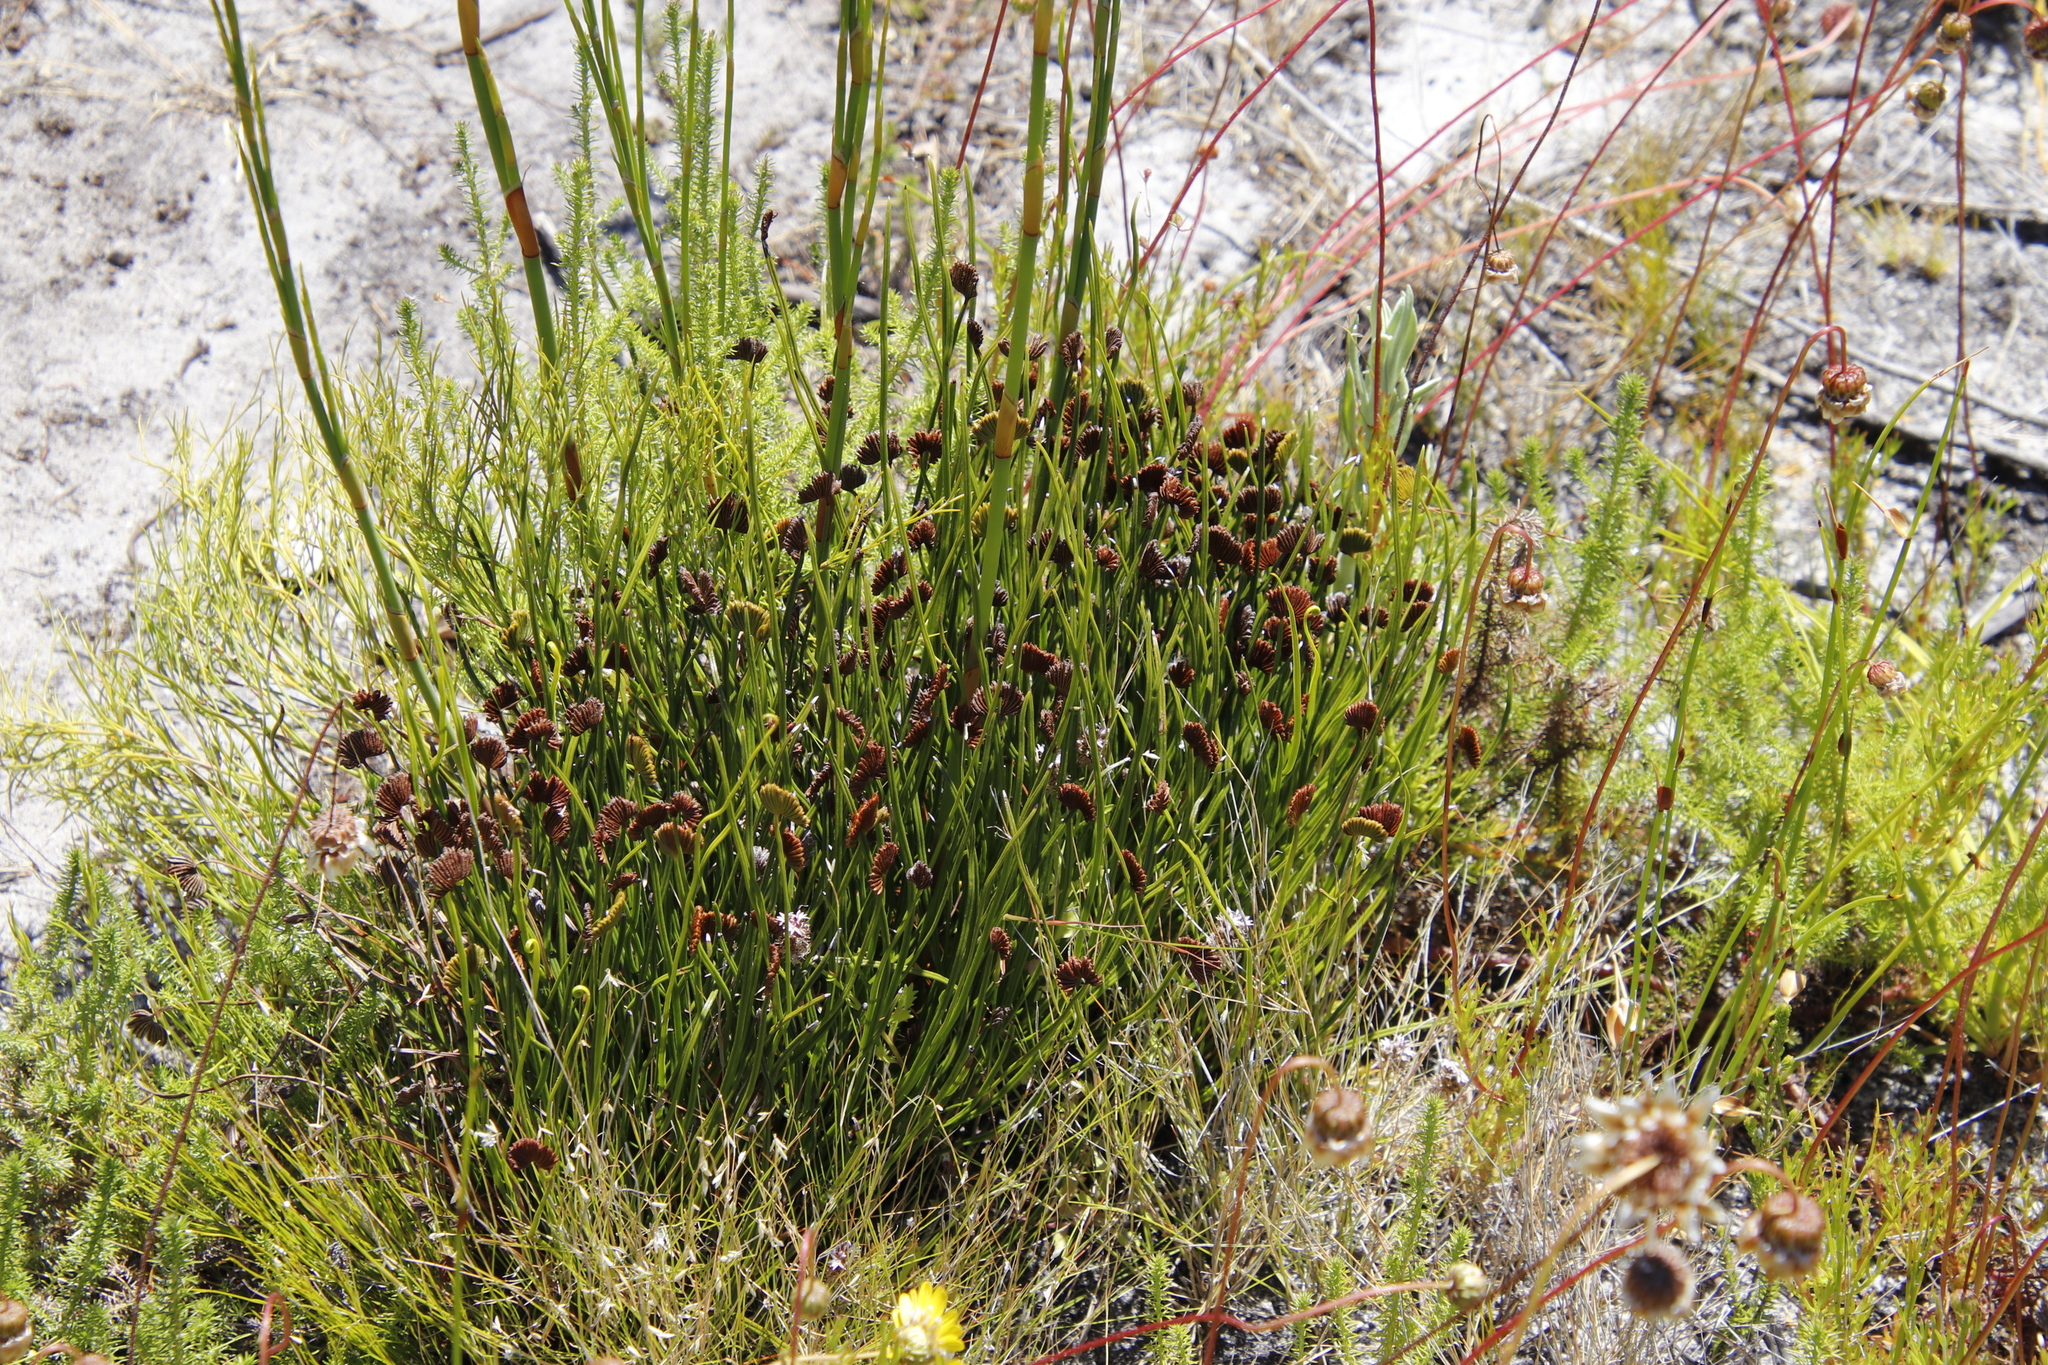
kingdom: Plantae
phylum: Tracheophyta
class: Polypodiopsida
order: Schizaeales
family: Schizaeaceae
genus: Schizaea
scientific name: Schizaea pectinata
